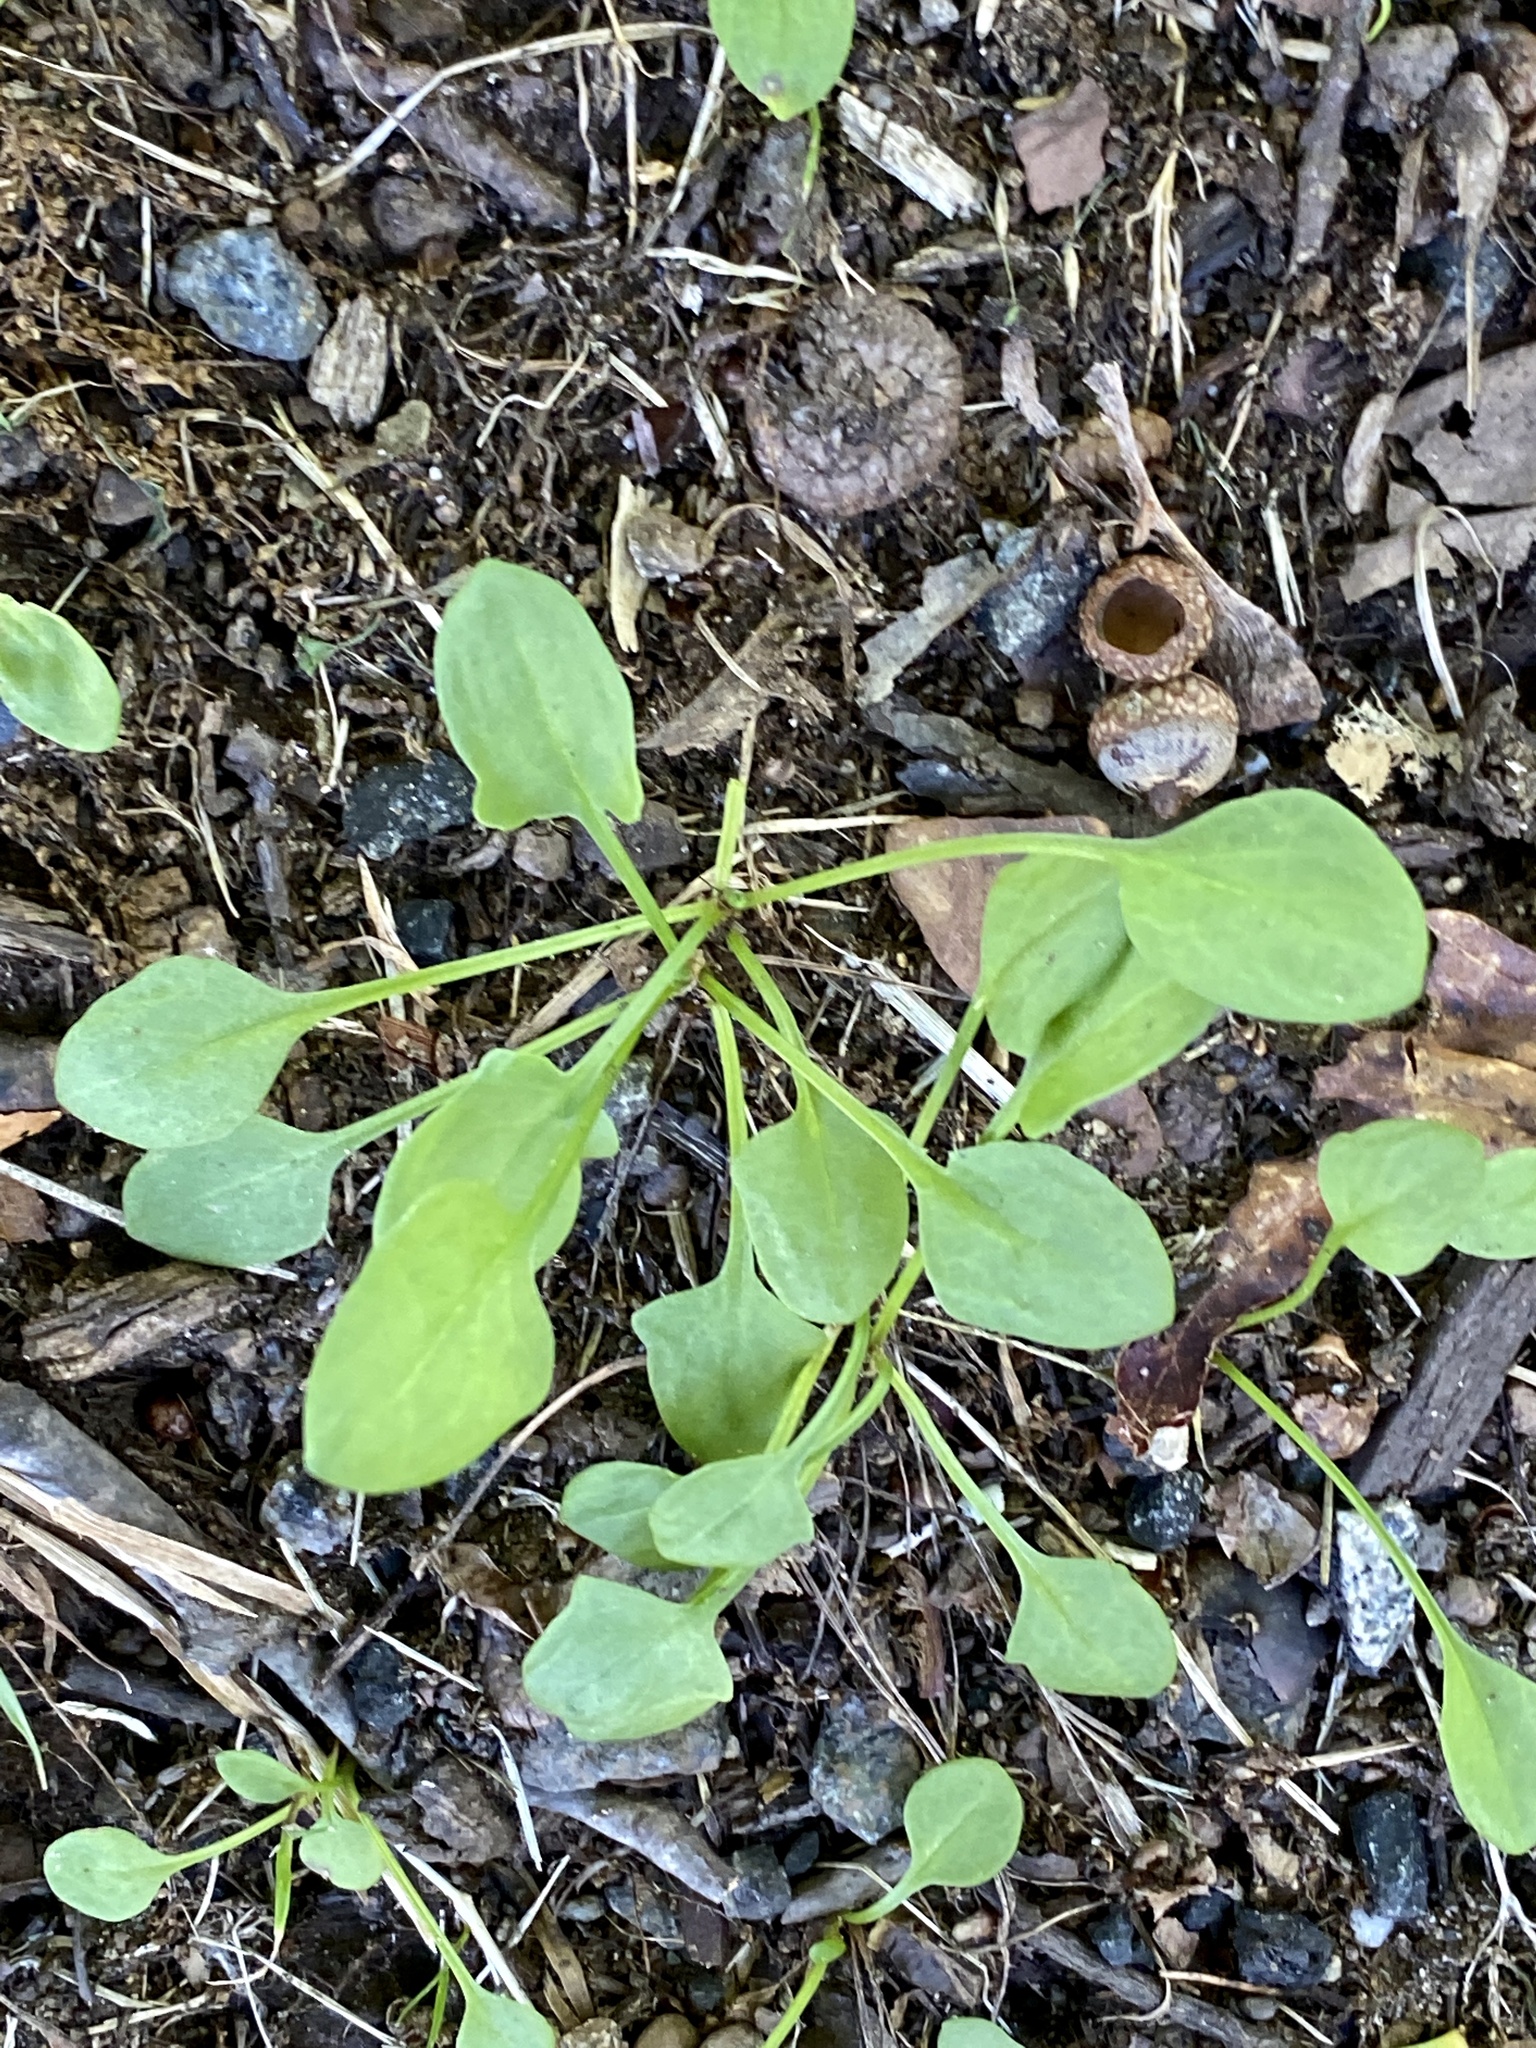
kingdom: Plantae
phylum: Tracheophyta
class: Magnoliopsida
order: Caryophyllales
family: Polygonaceae
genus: Rumex
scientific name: Rumex acetosella
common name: Common sheep sorrel
